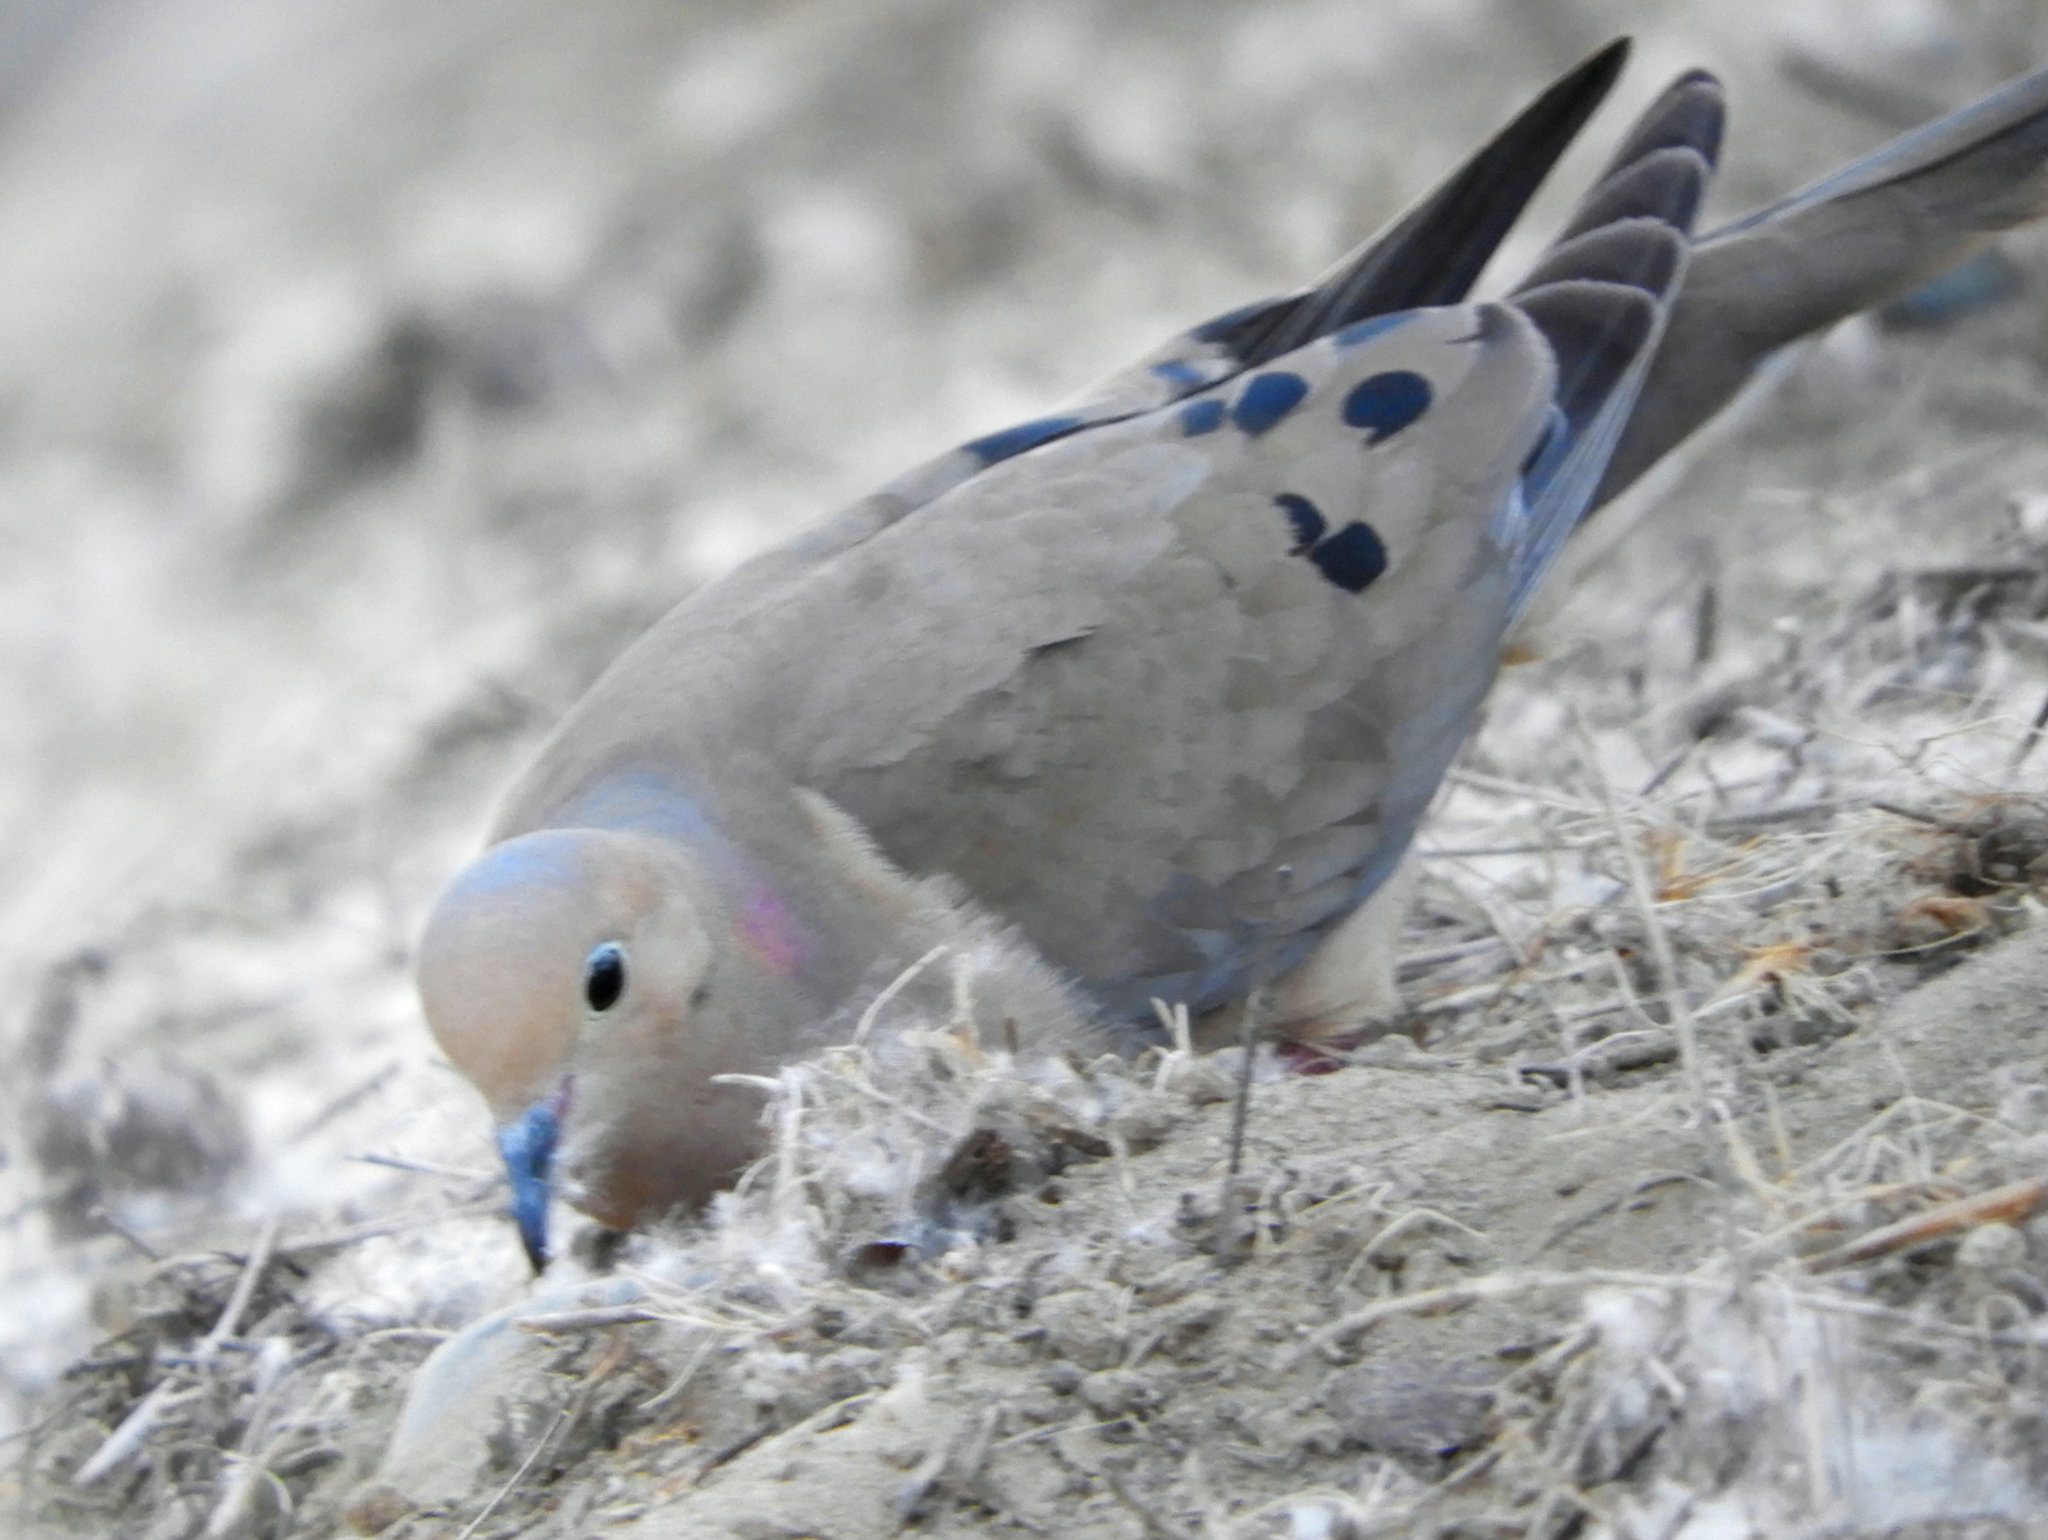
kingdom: Animalia
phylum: Chordata
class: Aves
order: Columbiformes
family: Columbidae
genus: Zenaida
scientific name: Zenaida macroura
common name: Mourning dove
